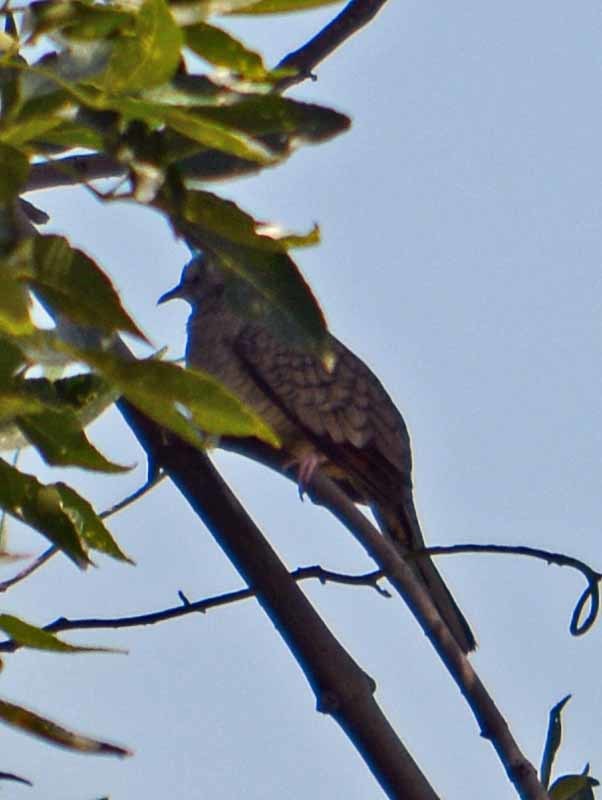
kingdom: Animalia
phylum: Chordata
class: Aves
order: Columbiformes
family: Columbidae
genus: Columbina
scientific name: Columbina inca
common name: Inca dove
